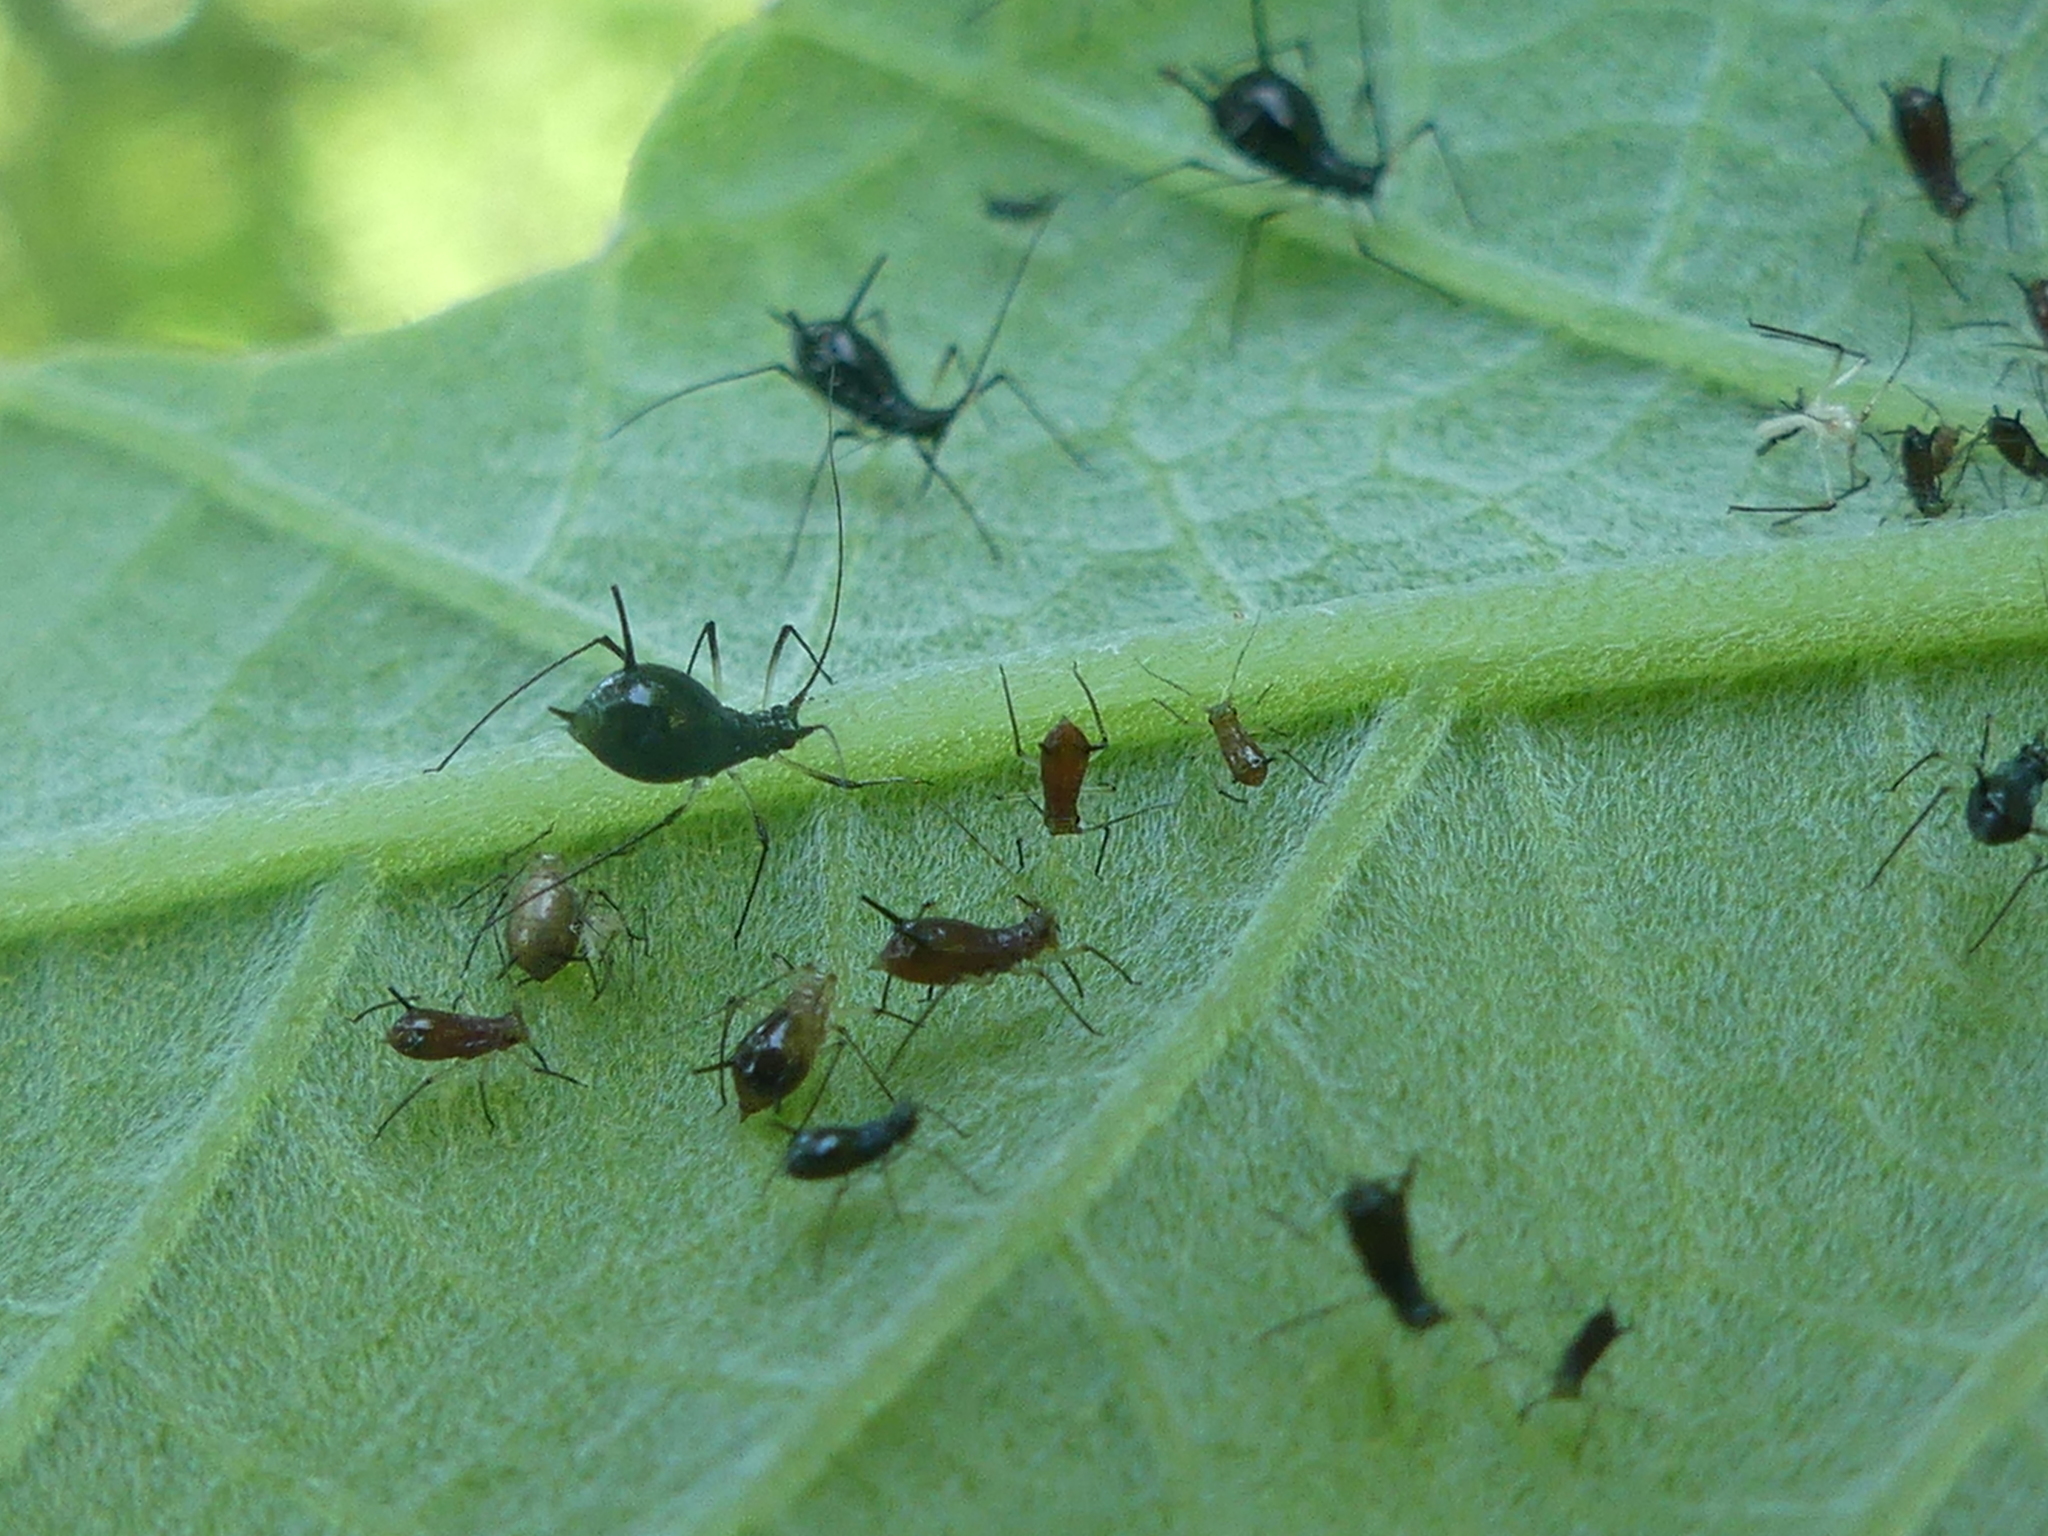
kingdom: Animalia
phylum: Arthropoda
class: Insecta
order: Hemiptera
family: Aphididae
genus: Uroleucon
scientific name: Uroleucon verbesinae
